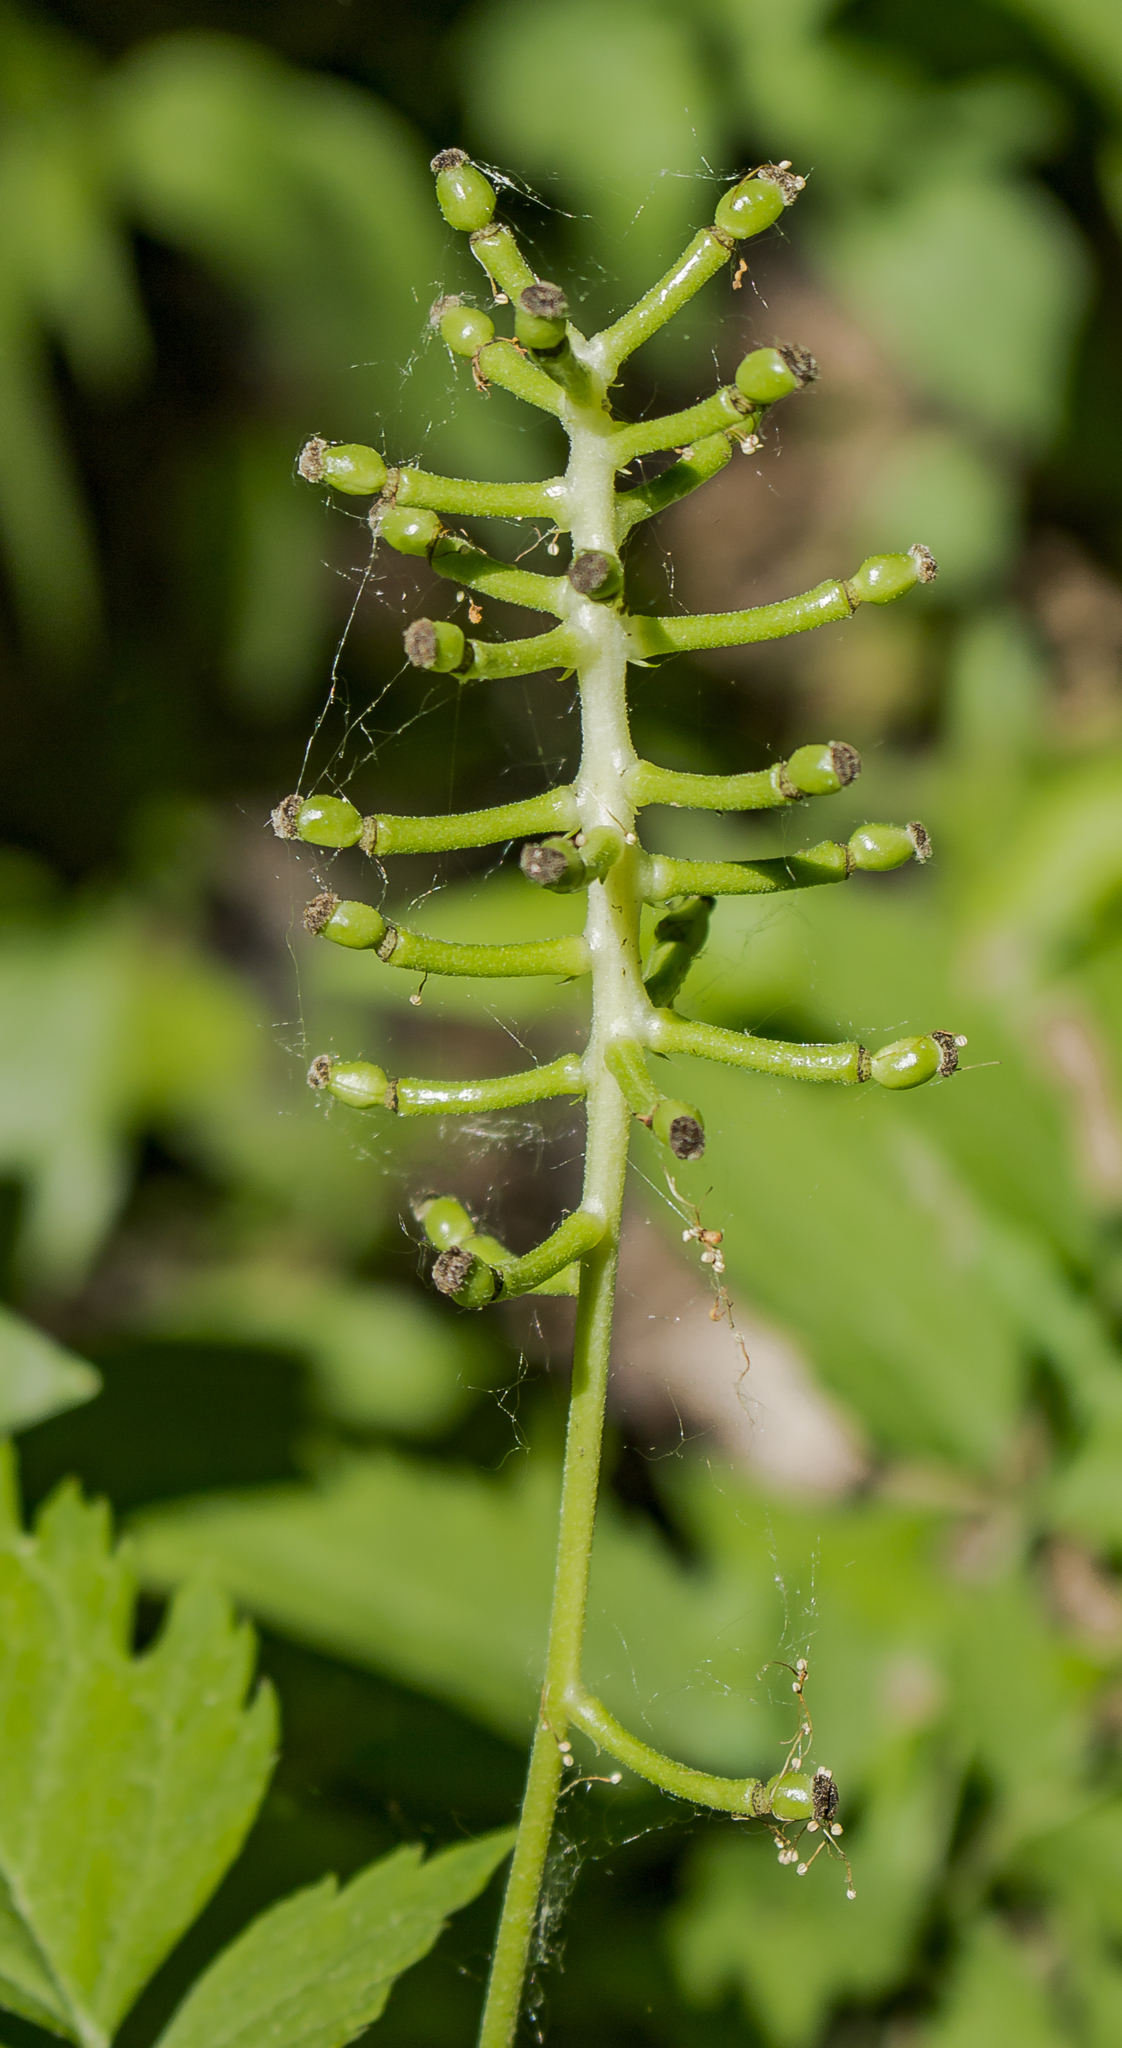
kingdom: Plantae
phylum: Tracheophyta
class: Magnoliopsida
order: Ranunculales
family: Ranunculaceae
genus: Actaea
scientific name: Actaea pachypoda
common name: Doll's-eyes
